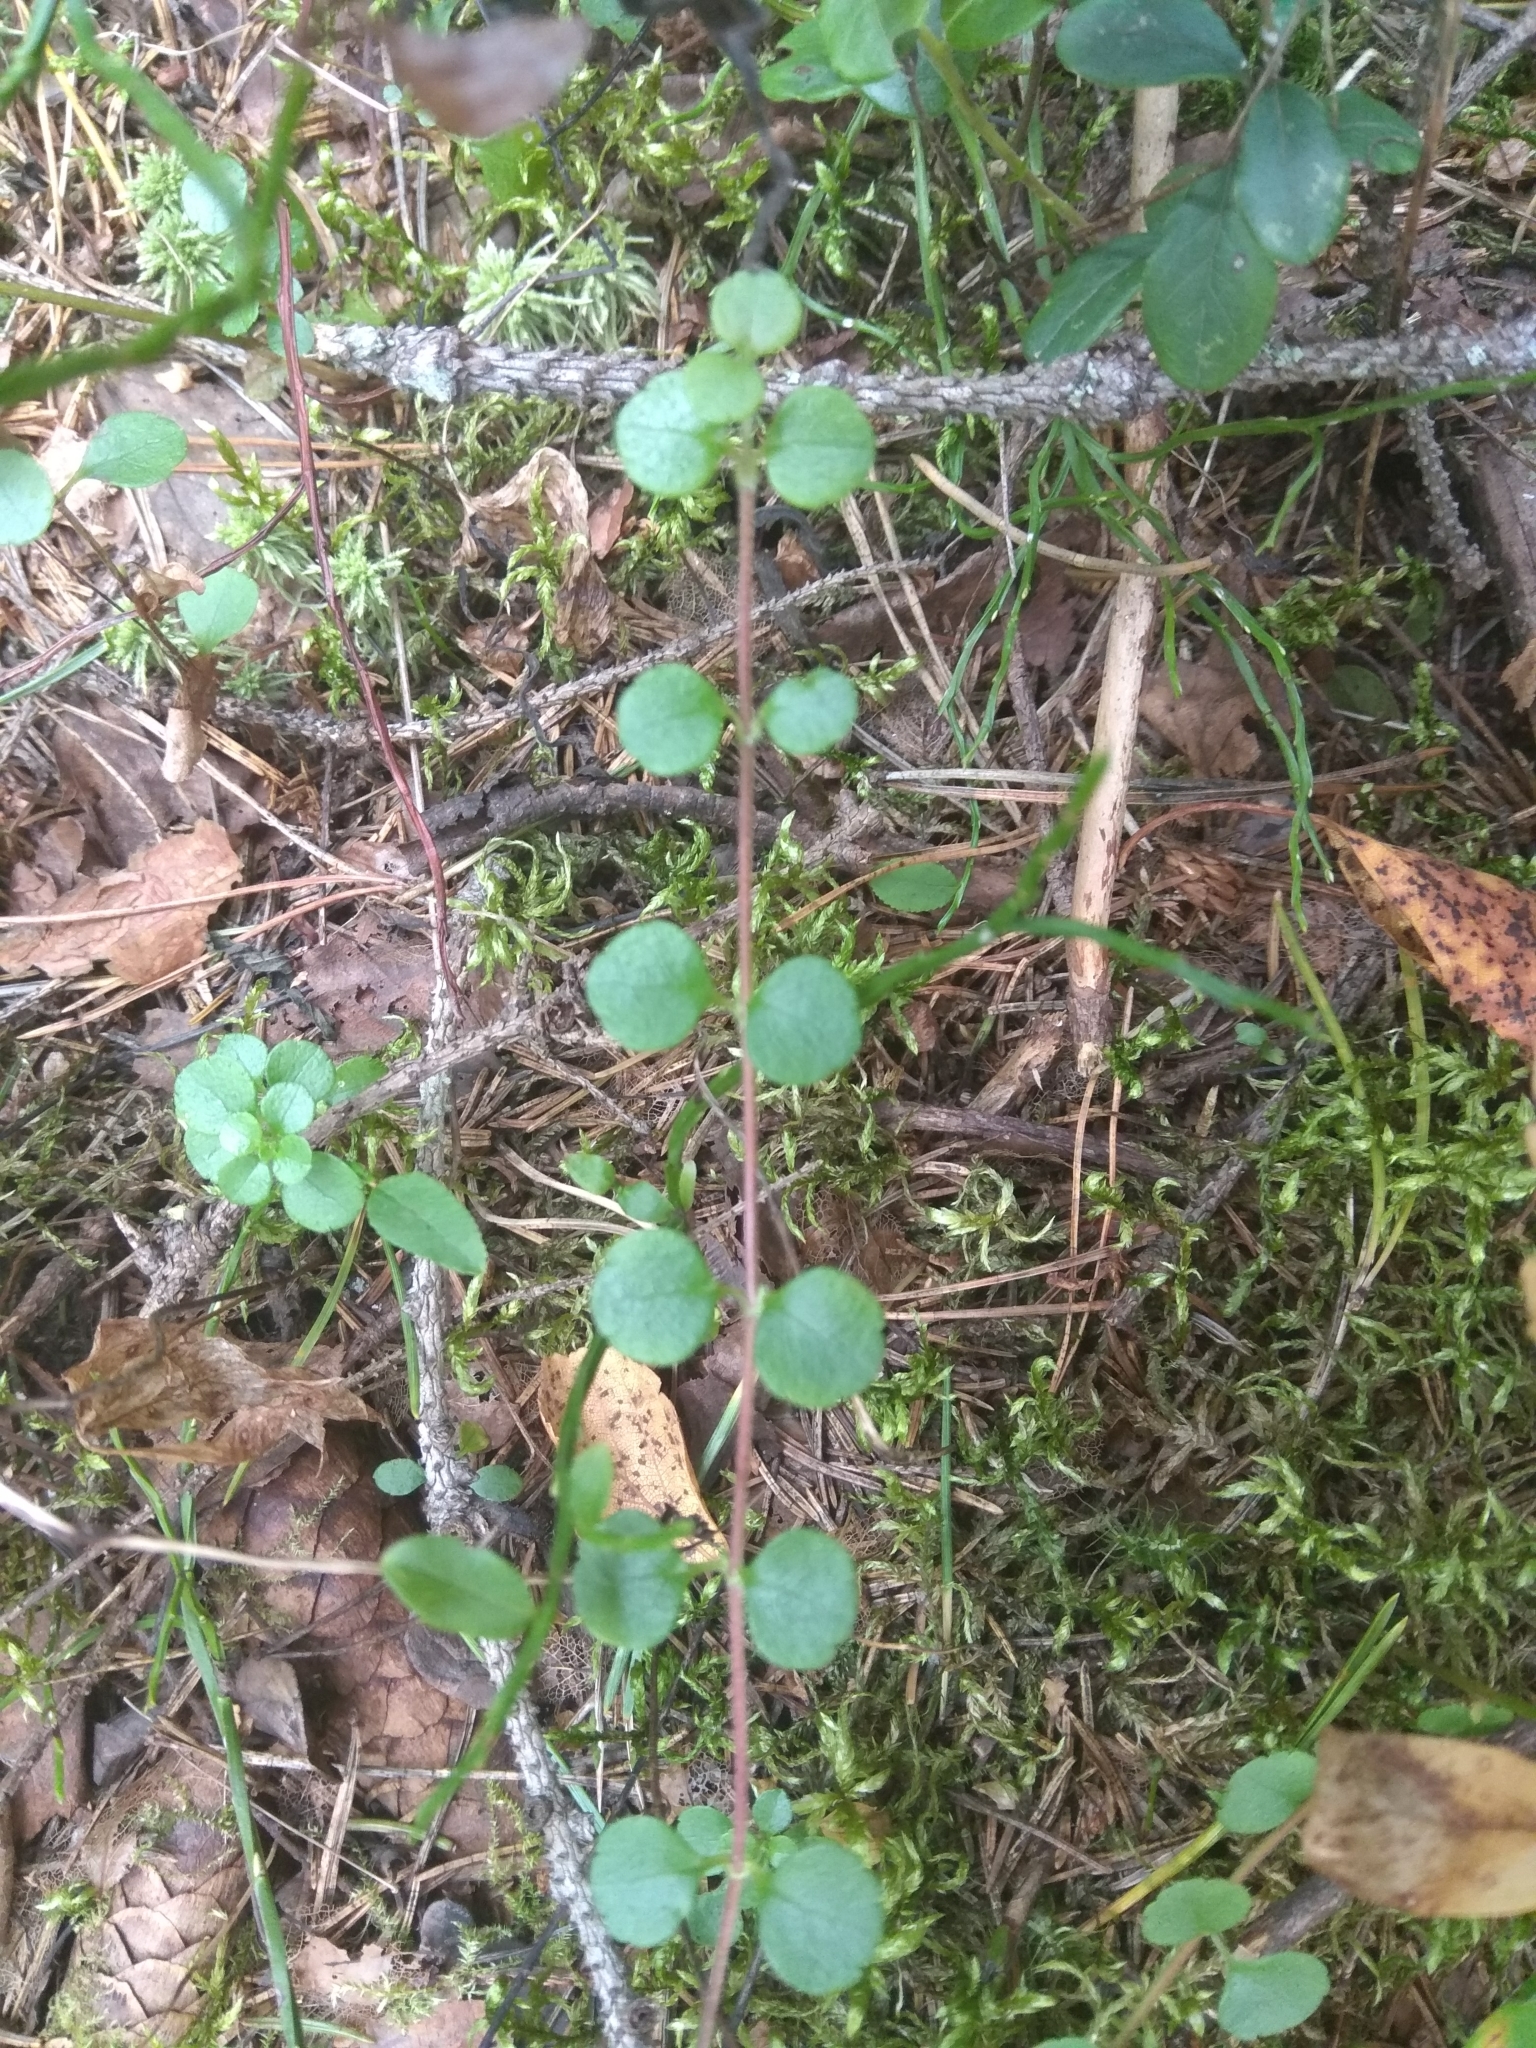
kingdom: Plantae
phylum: Tracheophyta
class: Magnoliopsida
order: Dipsacales
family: Caprifoliaceae
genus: Linnaea
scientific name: Linnaea borealis
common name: Twinflower
